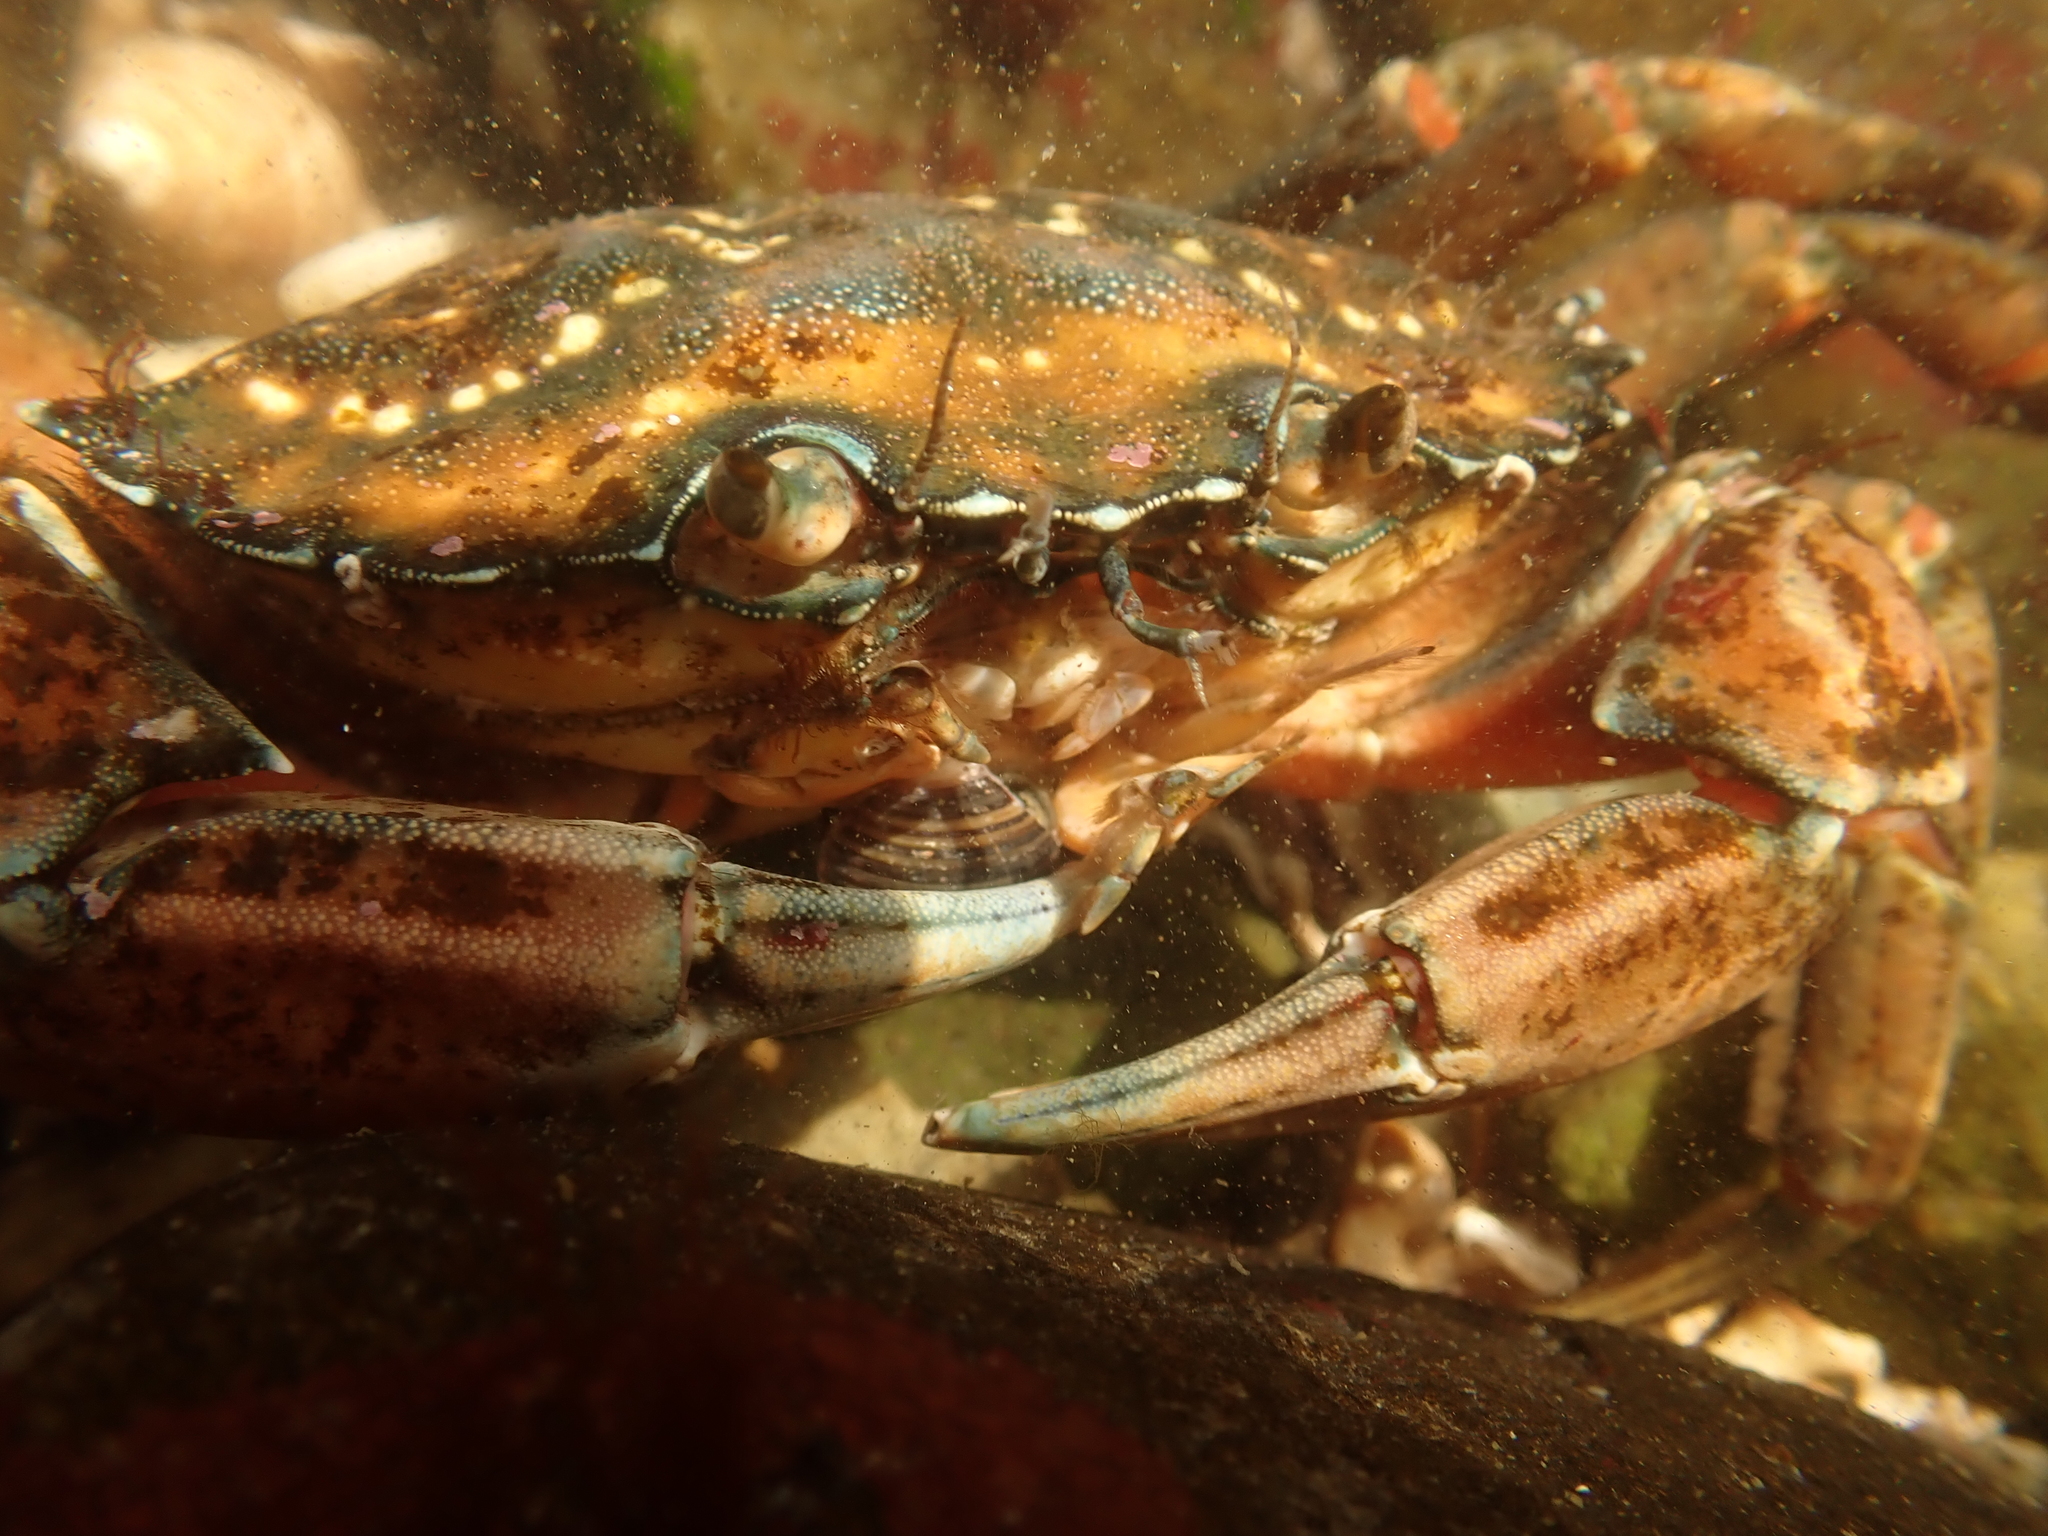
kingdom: Animalia
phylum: Arthropoda
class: Malacostraca
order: Decapoda
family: Carcinidae
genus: Carcinus
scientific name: Carcinus maenas
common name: European green crab
